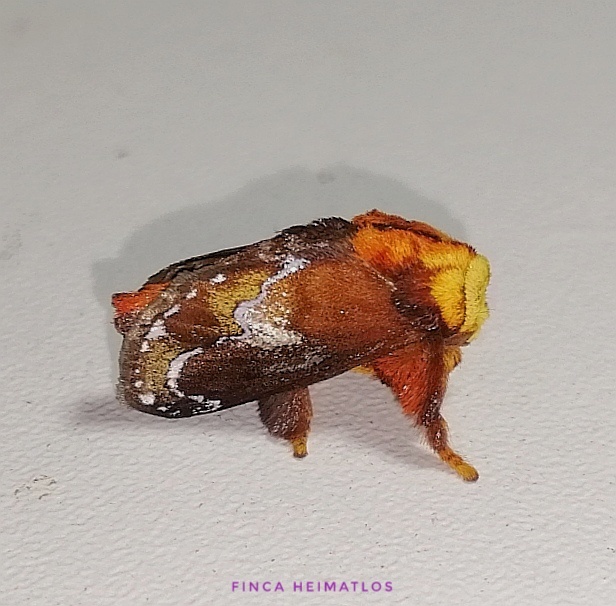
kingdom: Animalia
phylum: Arthropoda
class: Insecta
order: Lepidoptera
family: Limacodidae
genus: Miresa
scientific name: Miresa clarissa
